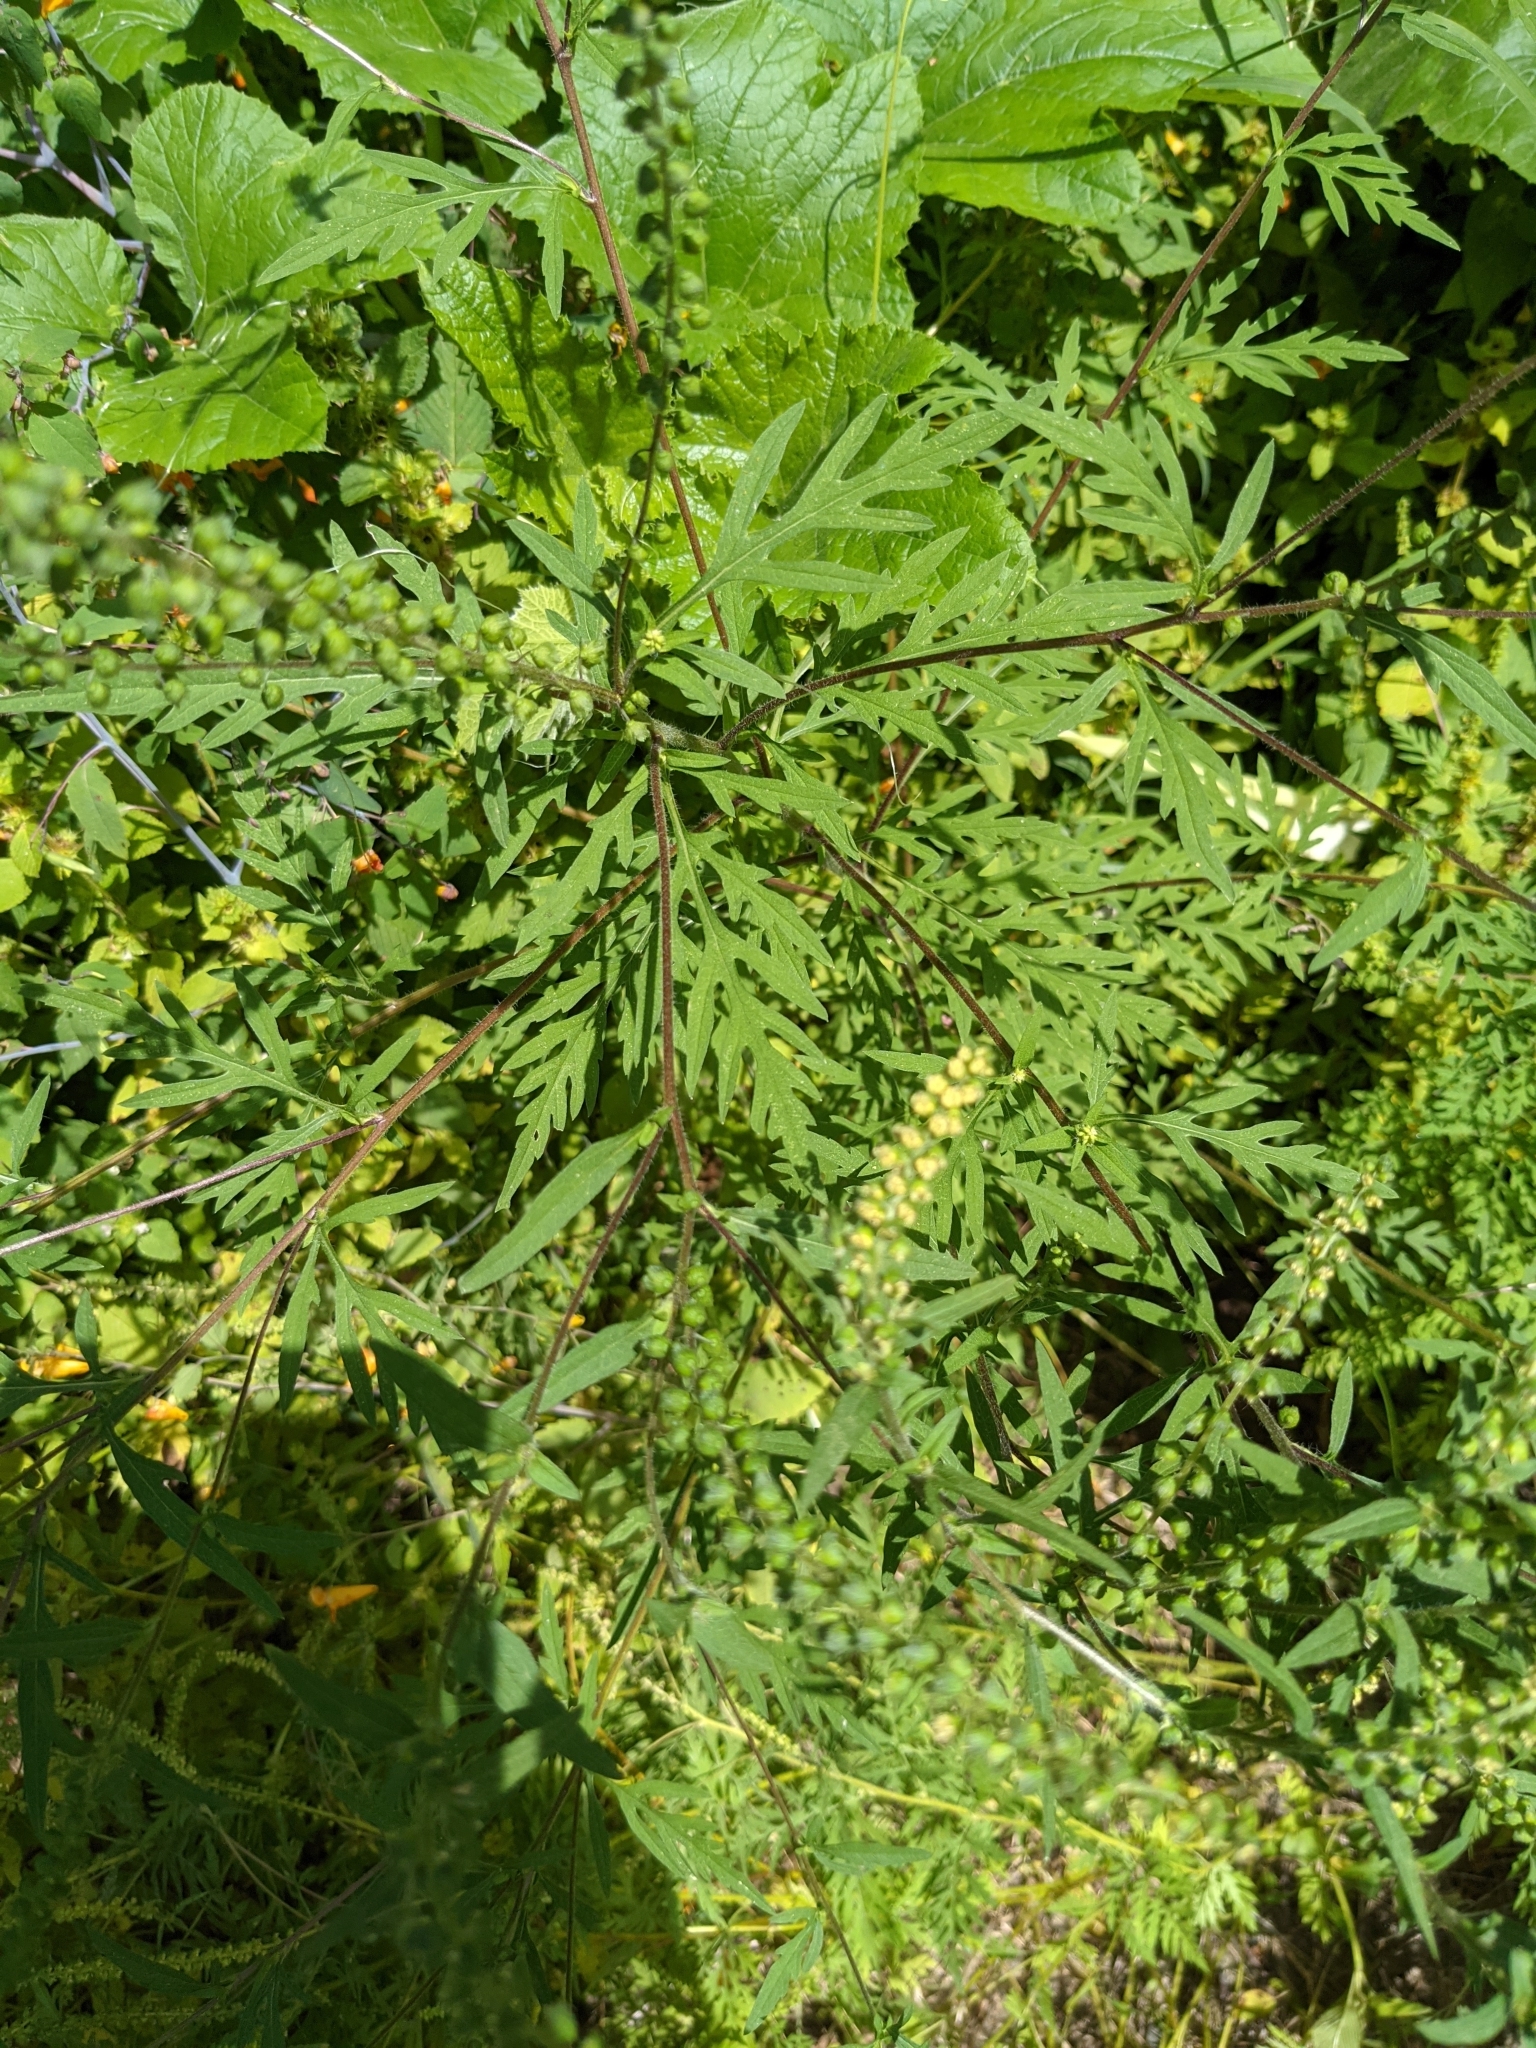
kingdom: Plantae
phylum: Tracheophyta
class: Magnoliopsida
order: Asterales
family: Asteraceae
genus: Ambrosia
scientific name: Ambrosia artemisiifolia
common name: Annual ragweed
